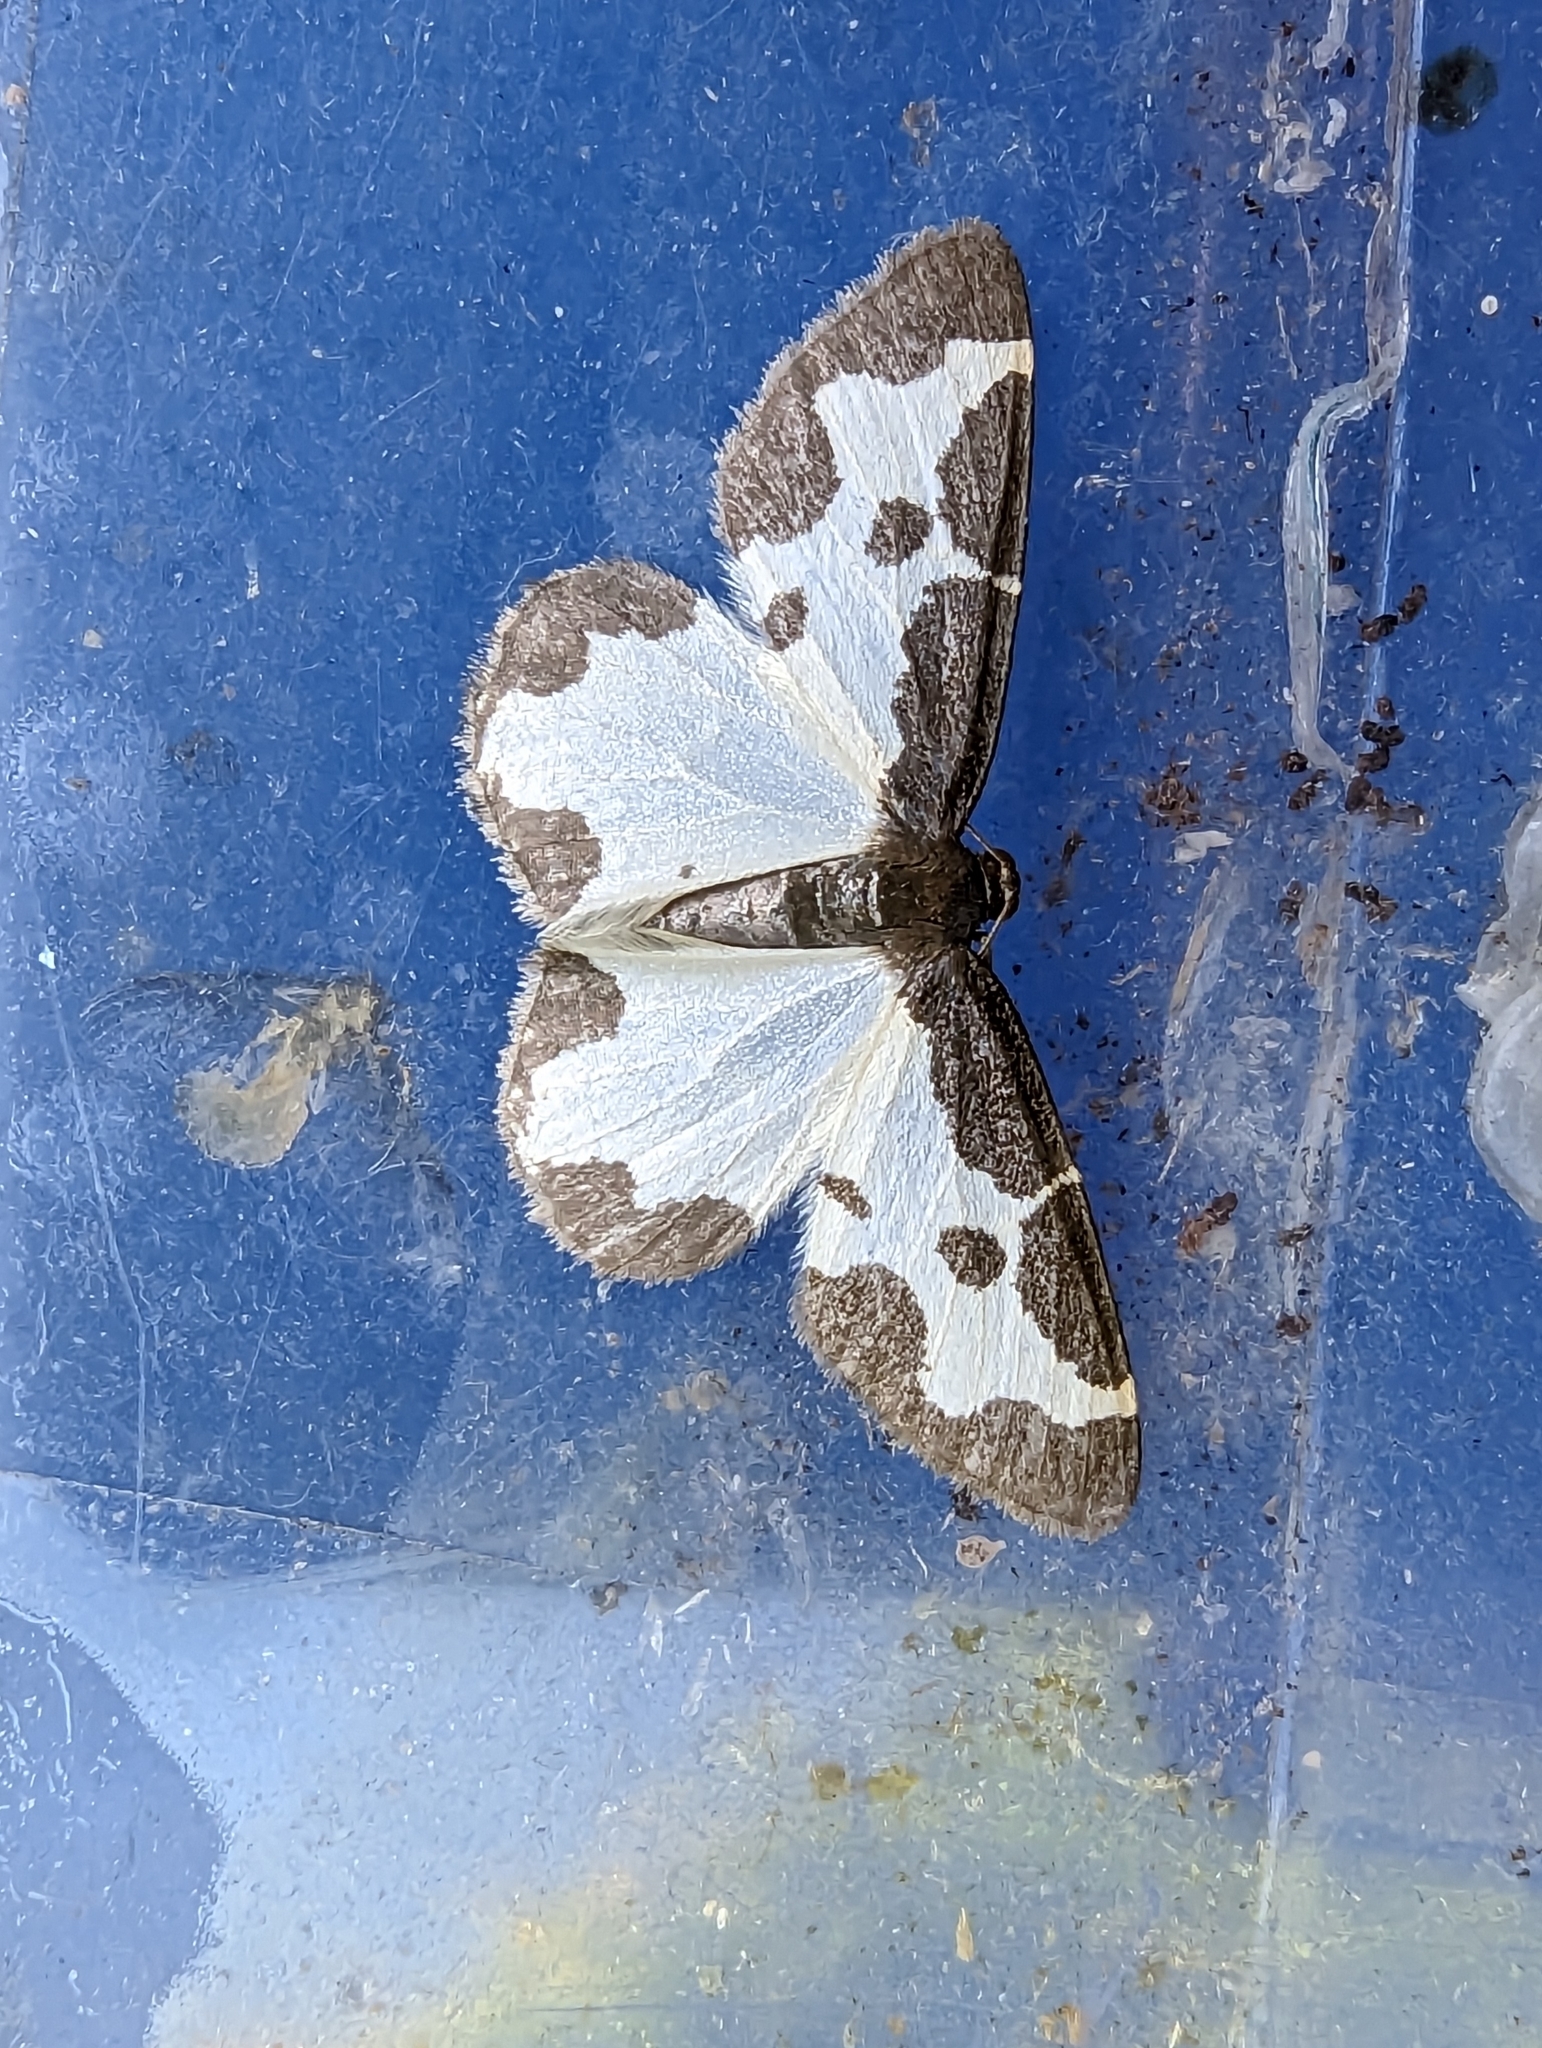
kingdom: Animalia
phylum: Arthropoda
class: Insecta
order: Lepidoptera
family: Geometridae
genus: Lomaspilis
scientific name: Lomaspilis marginata
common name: Clouded border
